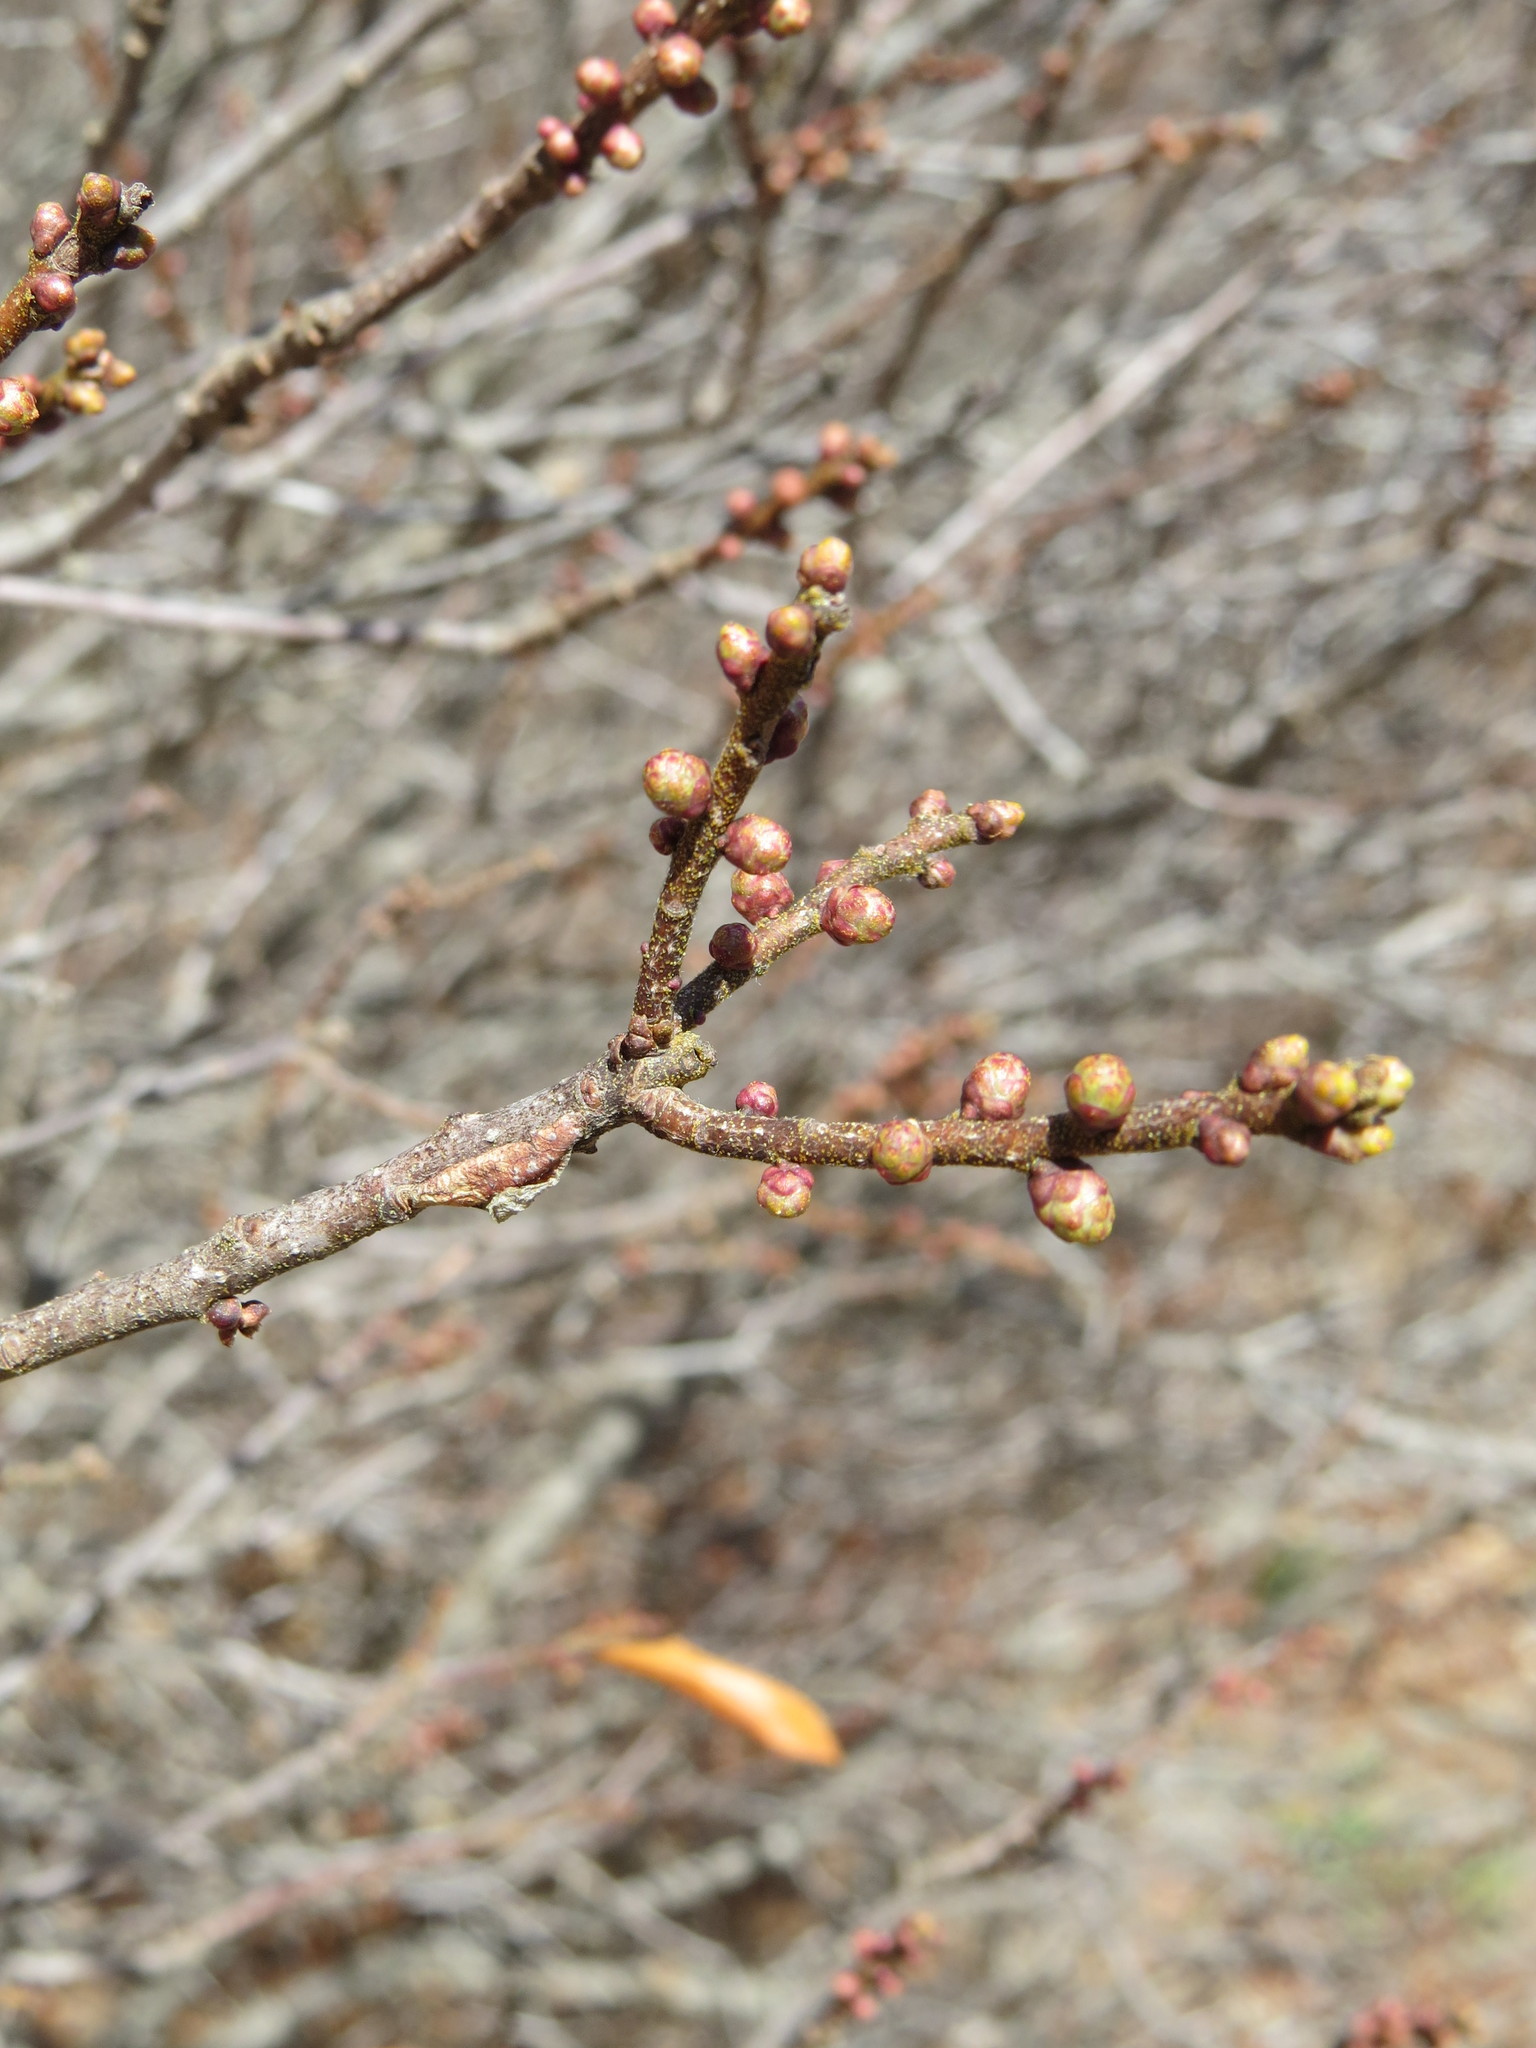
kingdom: Plantae
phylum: Tracheophyta
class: Magnoliopsida
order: Fagales
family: Myricaceae
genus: Morella
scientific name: Morella pensylvanica
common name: Northern bayberry
